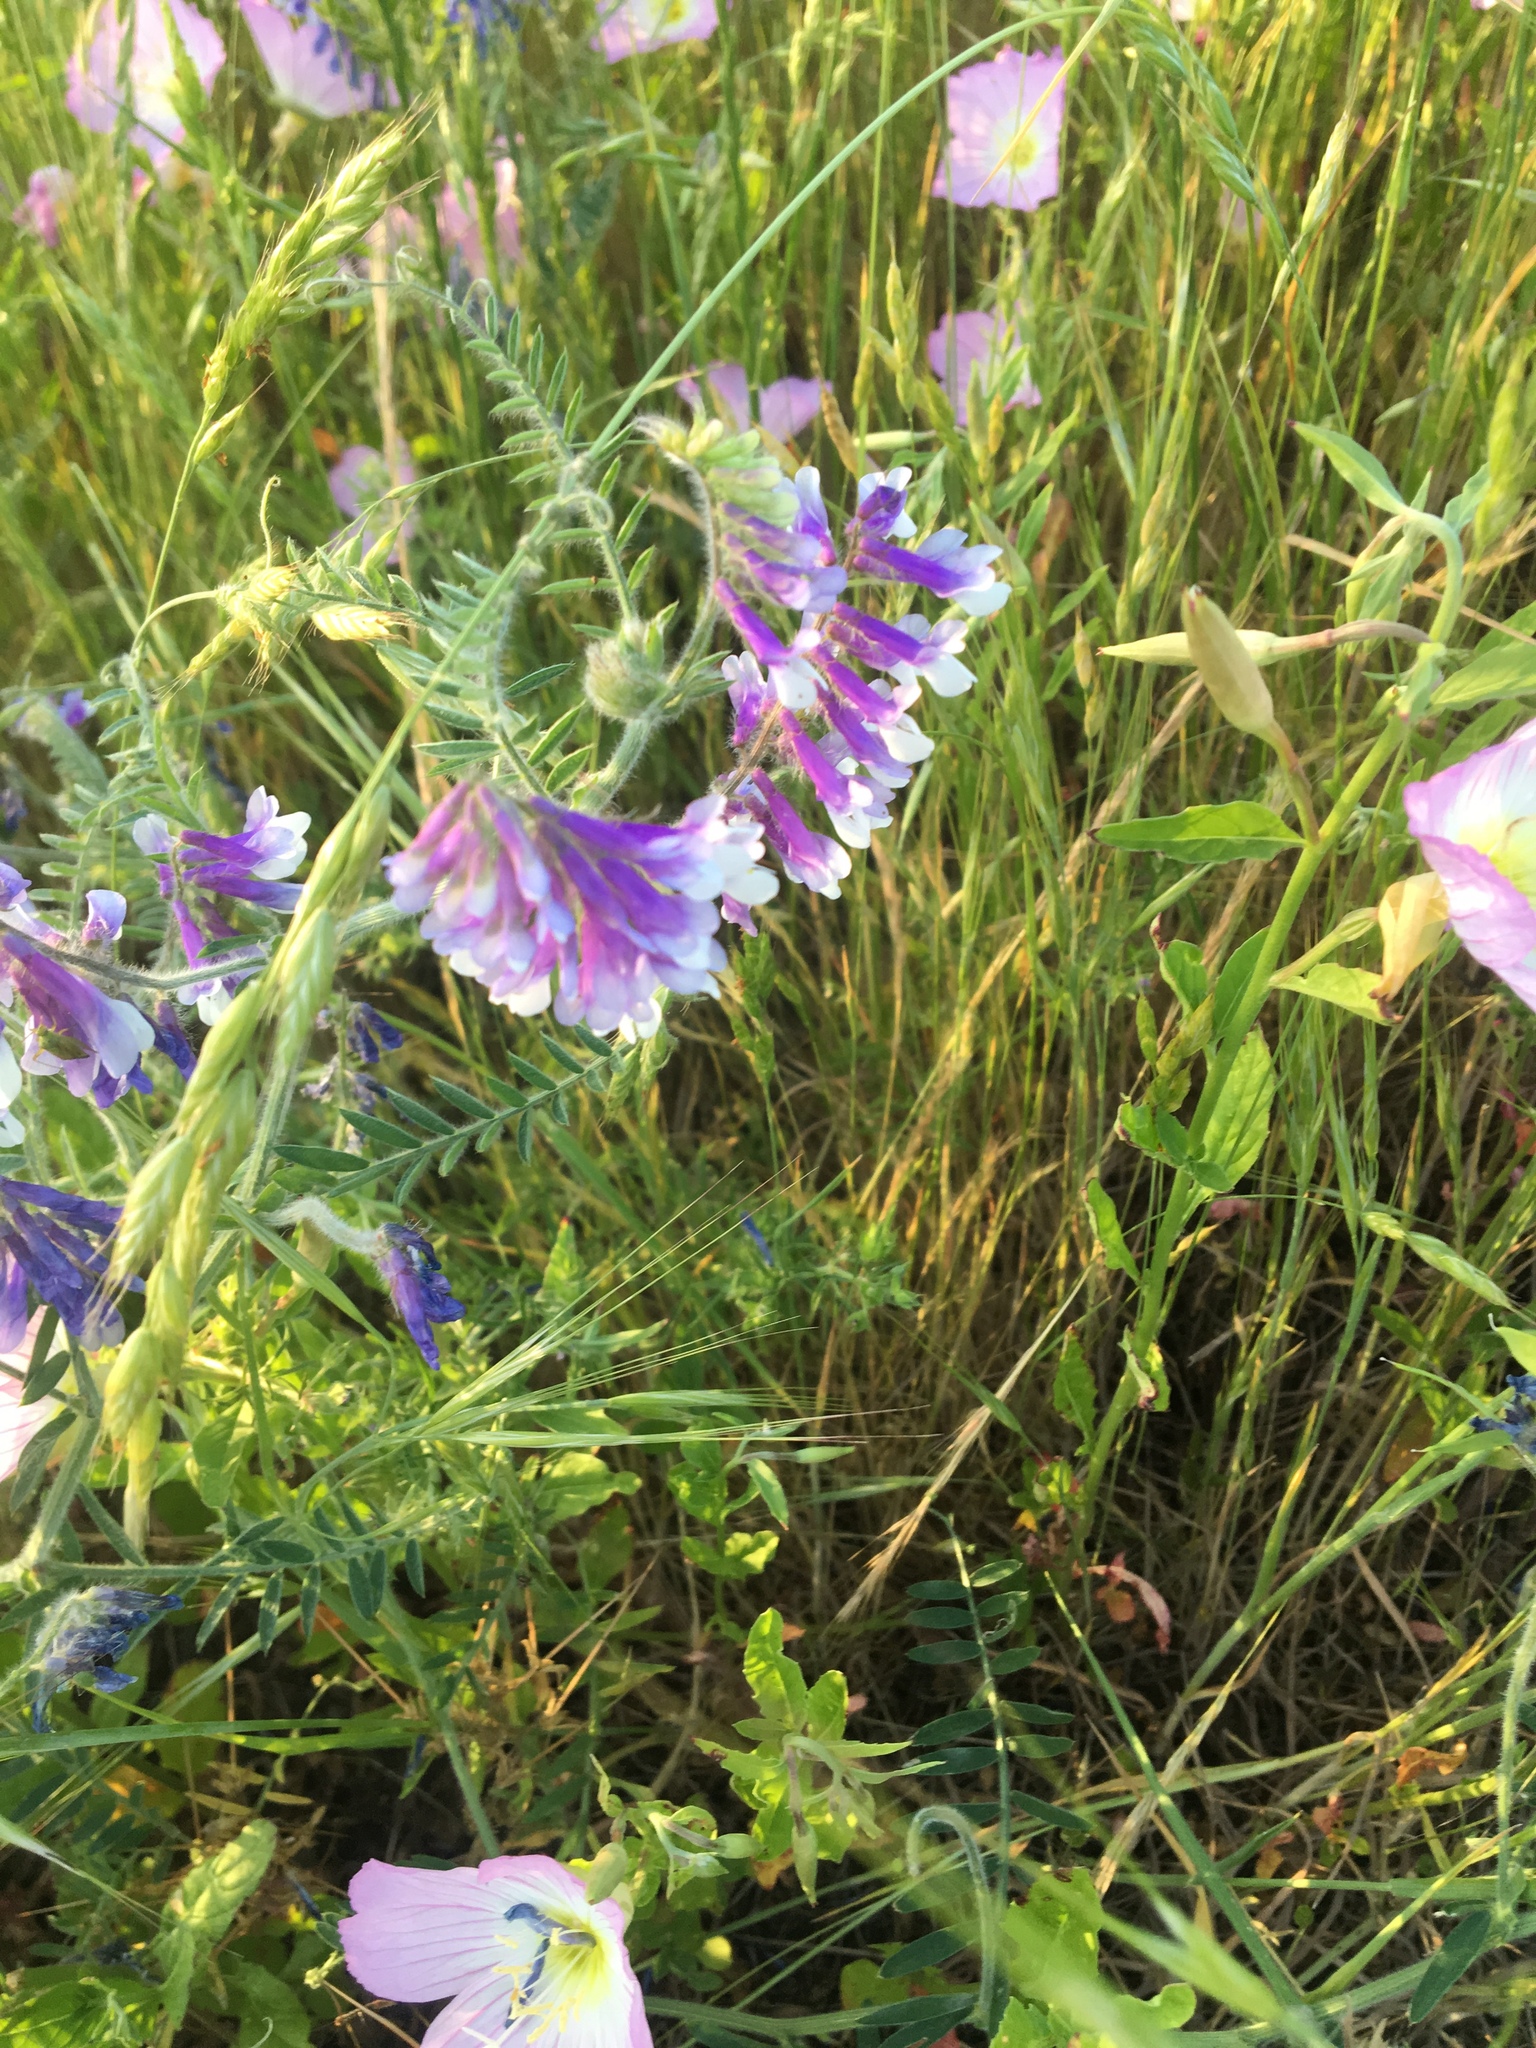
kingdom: Plantae
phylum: Tracheophyta
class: Magnoliopsida
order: Fabales
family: Fabaceae
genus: Vicia
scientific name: Vicia villosa
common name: Fodder vetch
